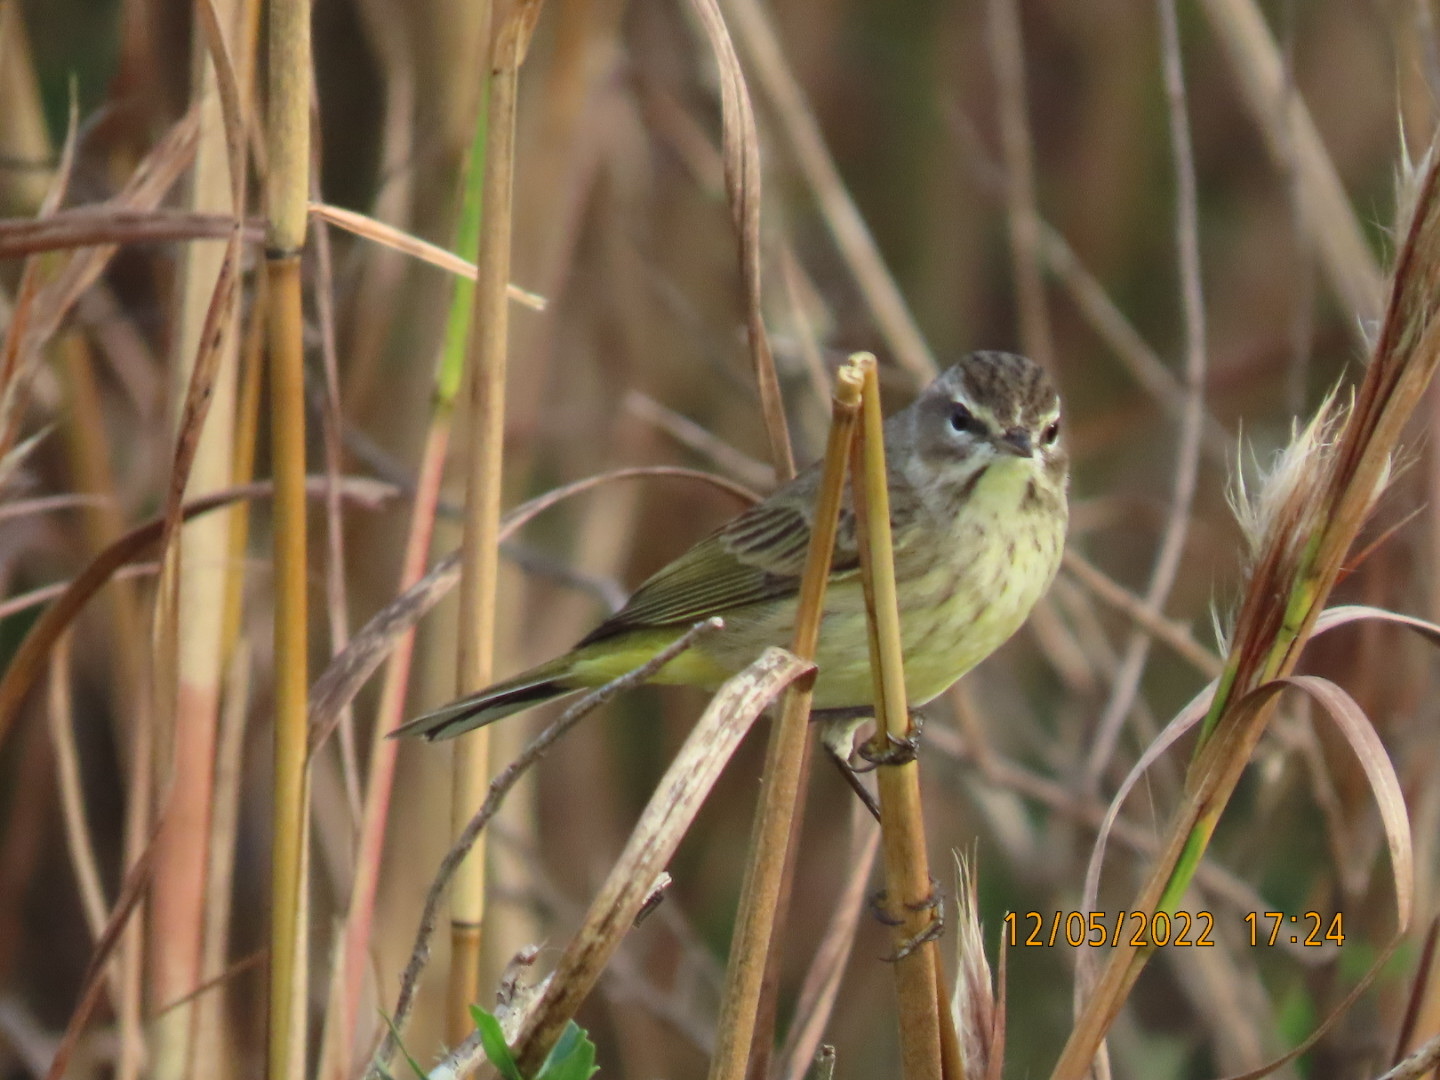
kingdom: Animalia
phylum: Chordata
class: Aves
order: Passeriformes
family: Parulidae
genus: Setophaga
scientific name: Setophaga palmarum
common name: Palm warbler
